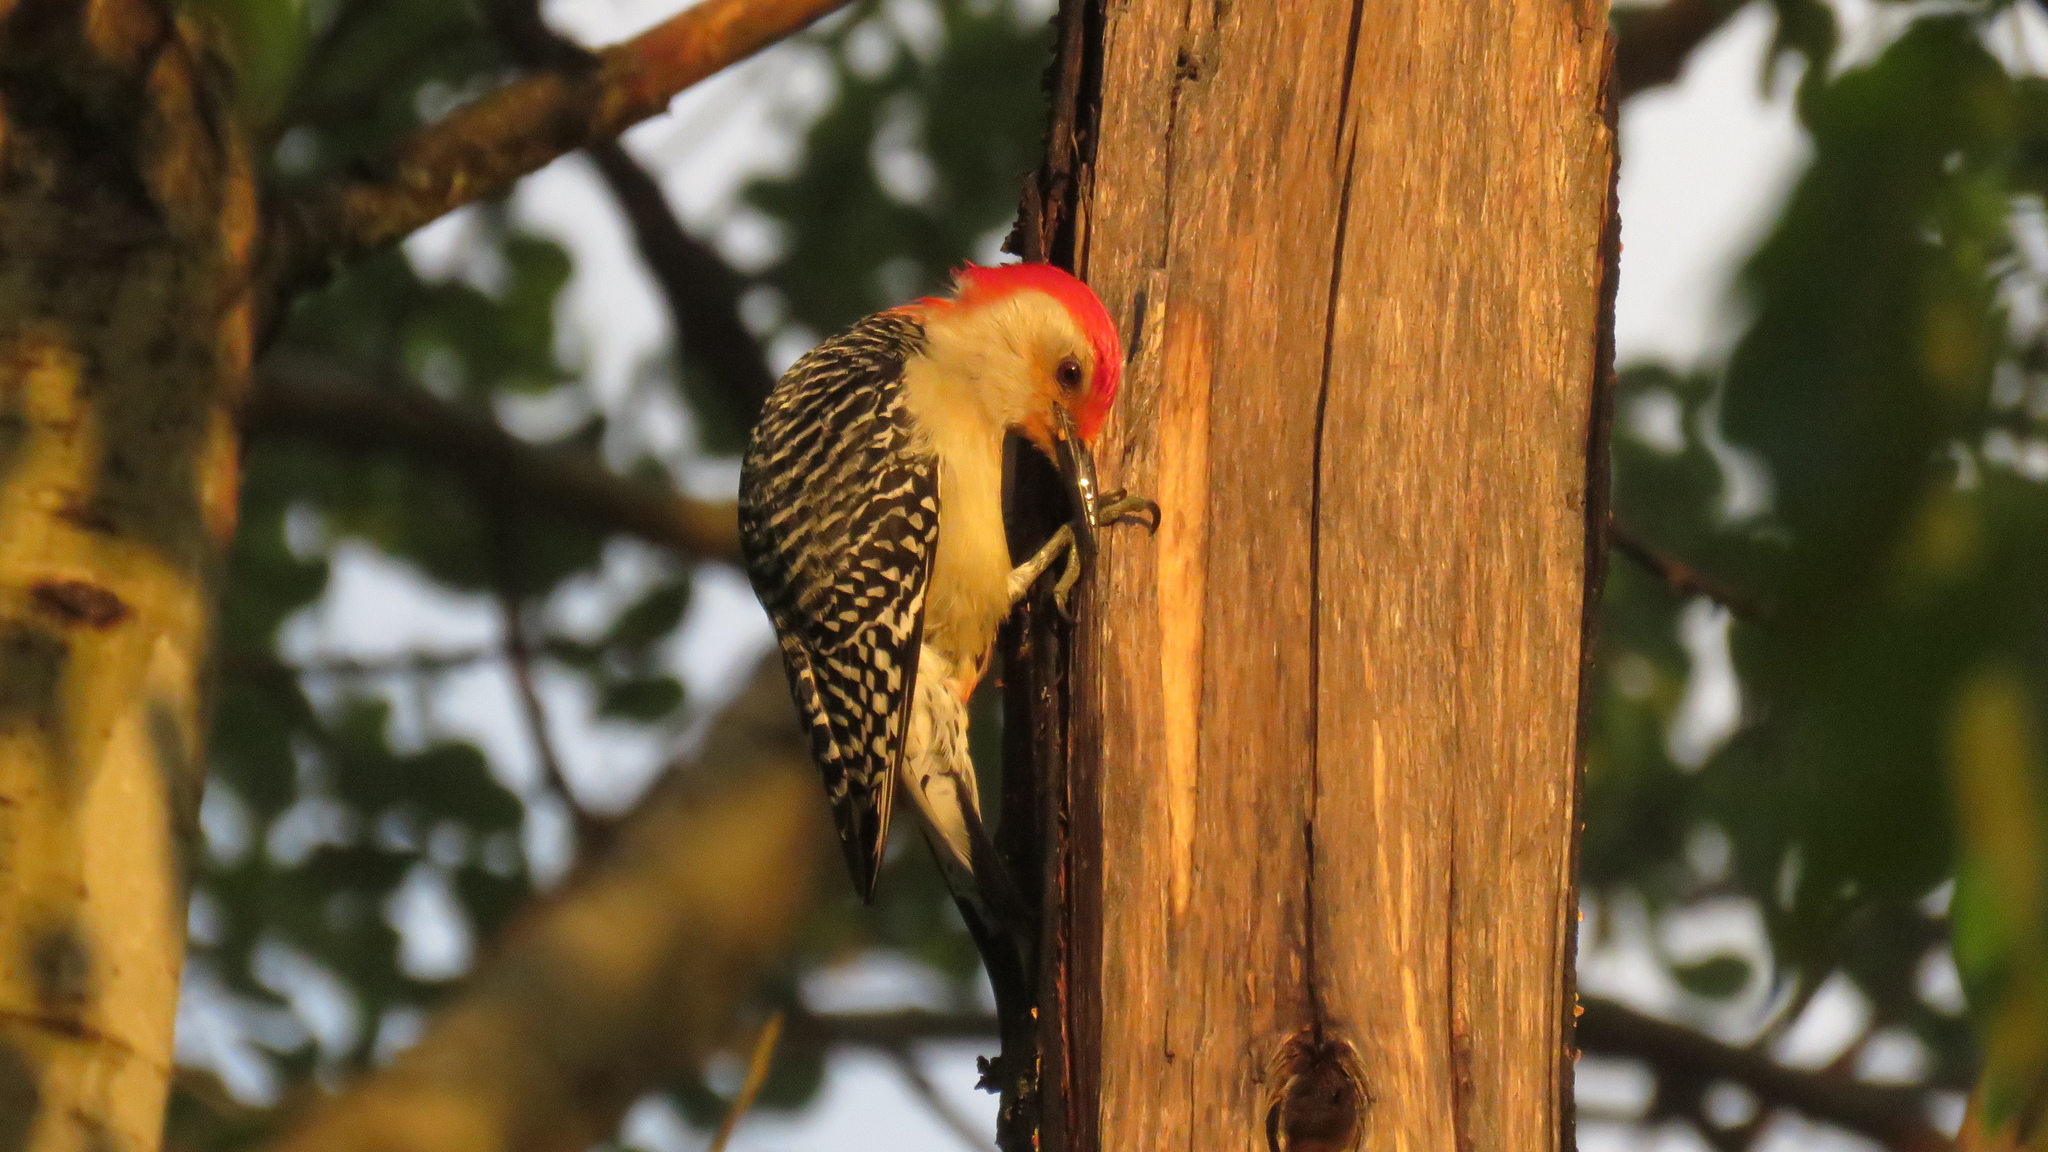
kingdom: Animalia
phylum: Chordata
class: Aves
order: Piciformes
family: Picidae
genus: Melanerpes
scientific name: Melanerpes carolinus
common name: Red-bellied woodpecker
